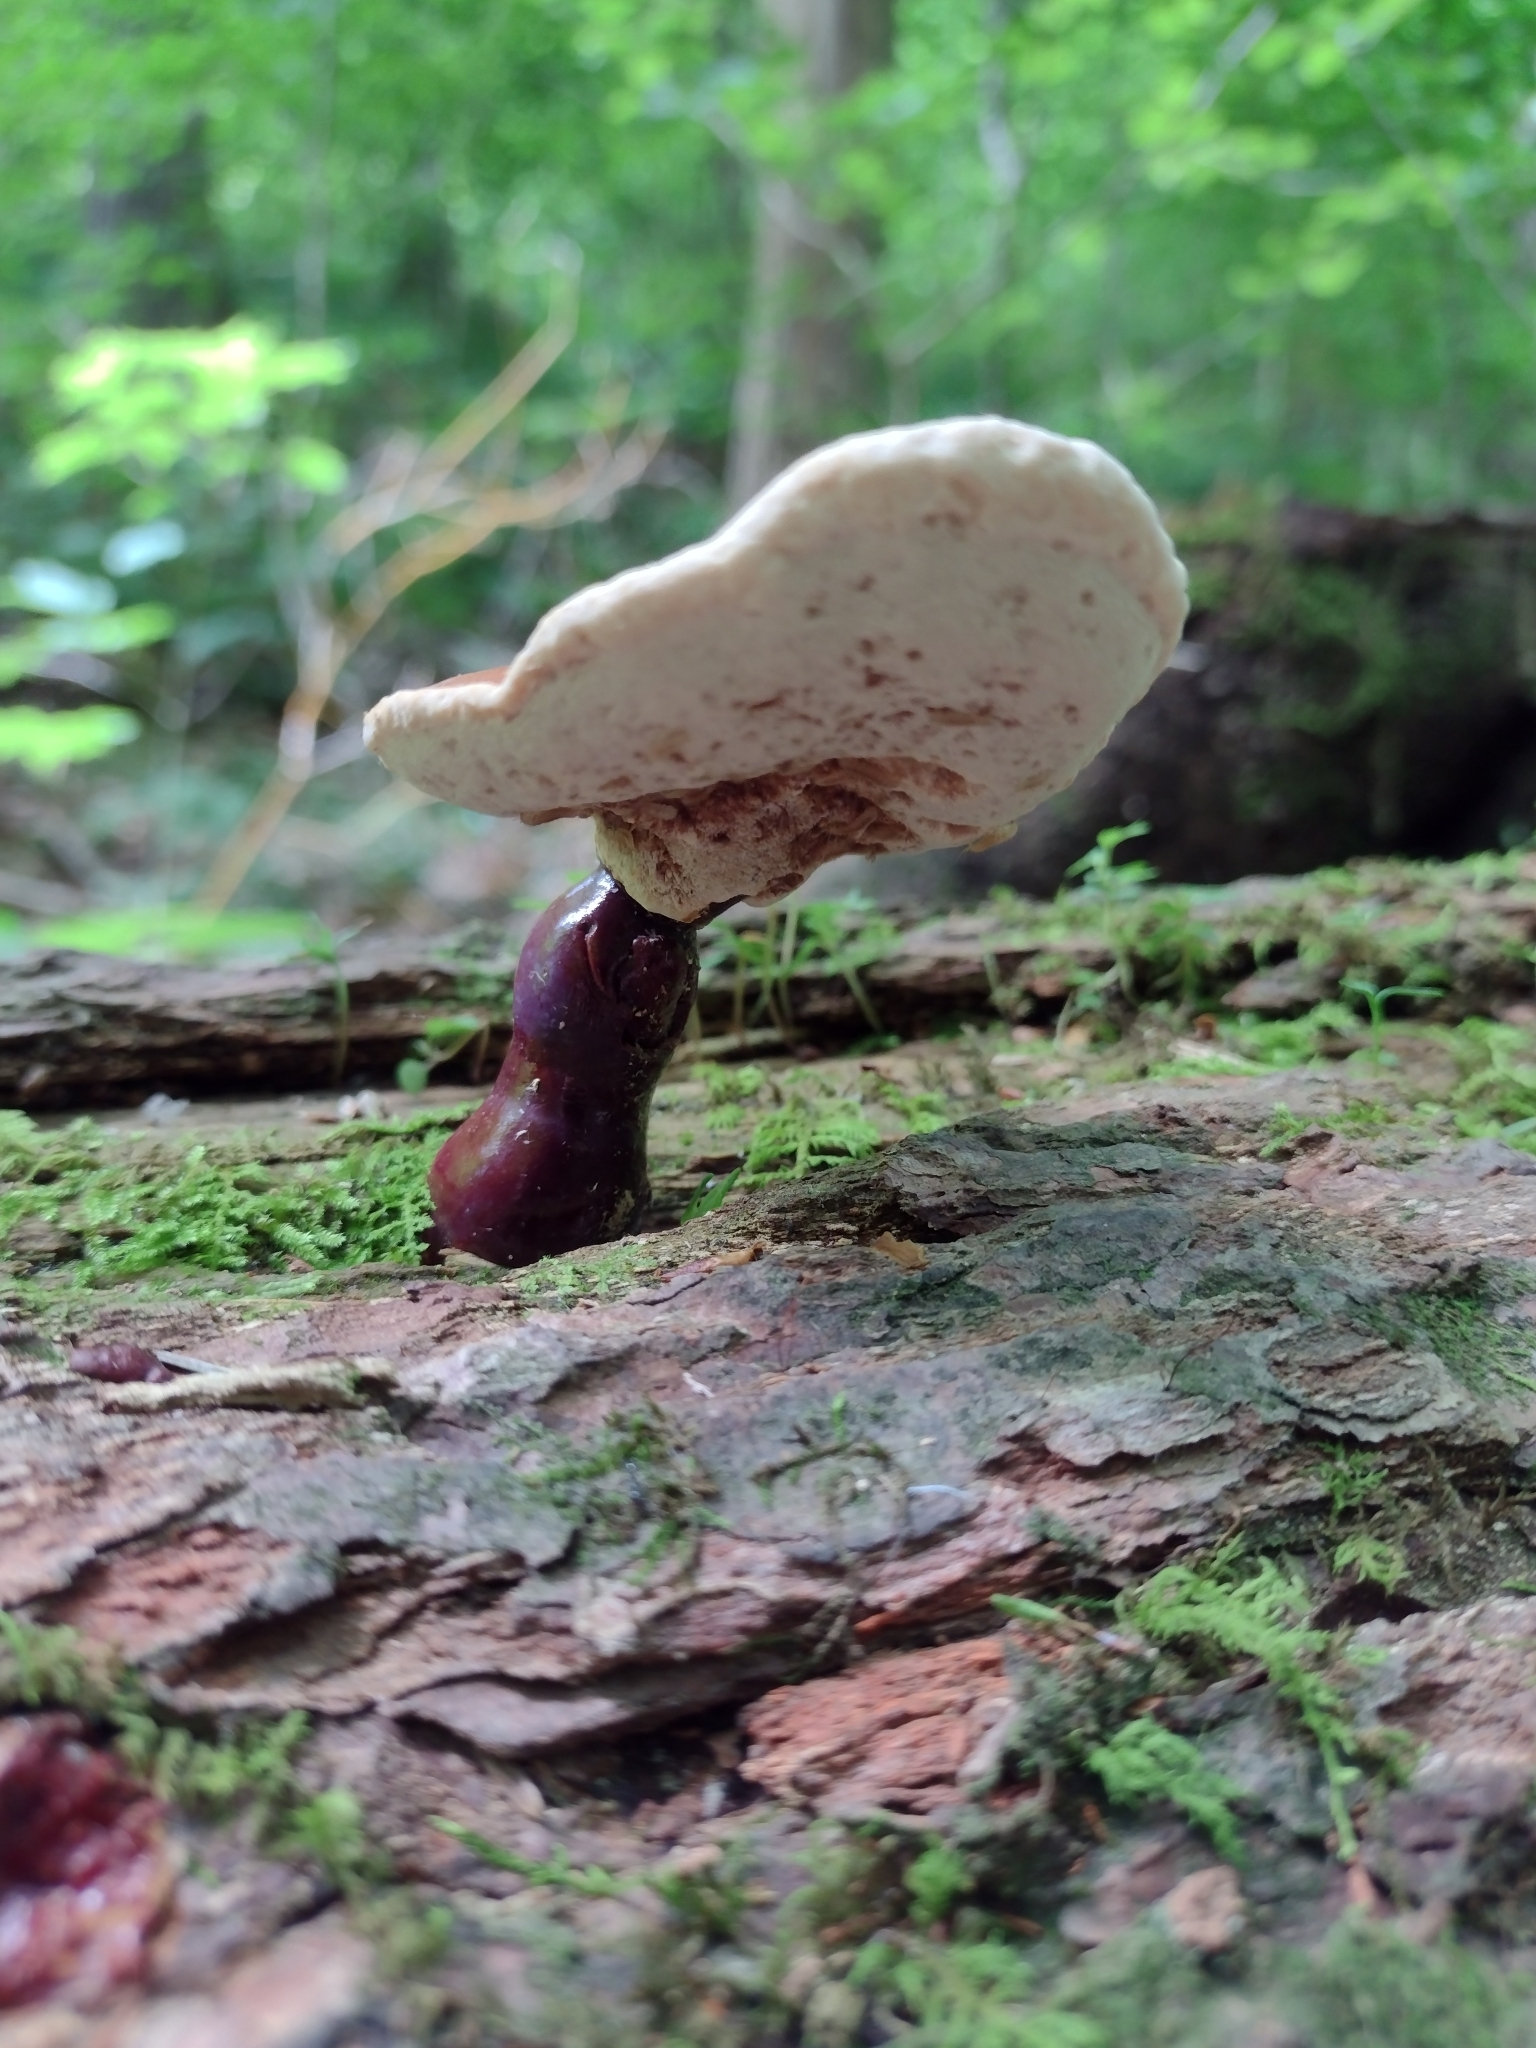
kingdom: Fungi
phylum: Basidiomycota
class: Agaricomycetes
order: Polyporales
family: Polyporaceae
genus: Ganoderma
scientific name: Ganoderma tsugae
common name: Hemlock varnish shelf
